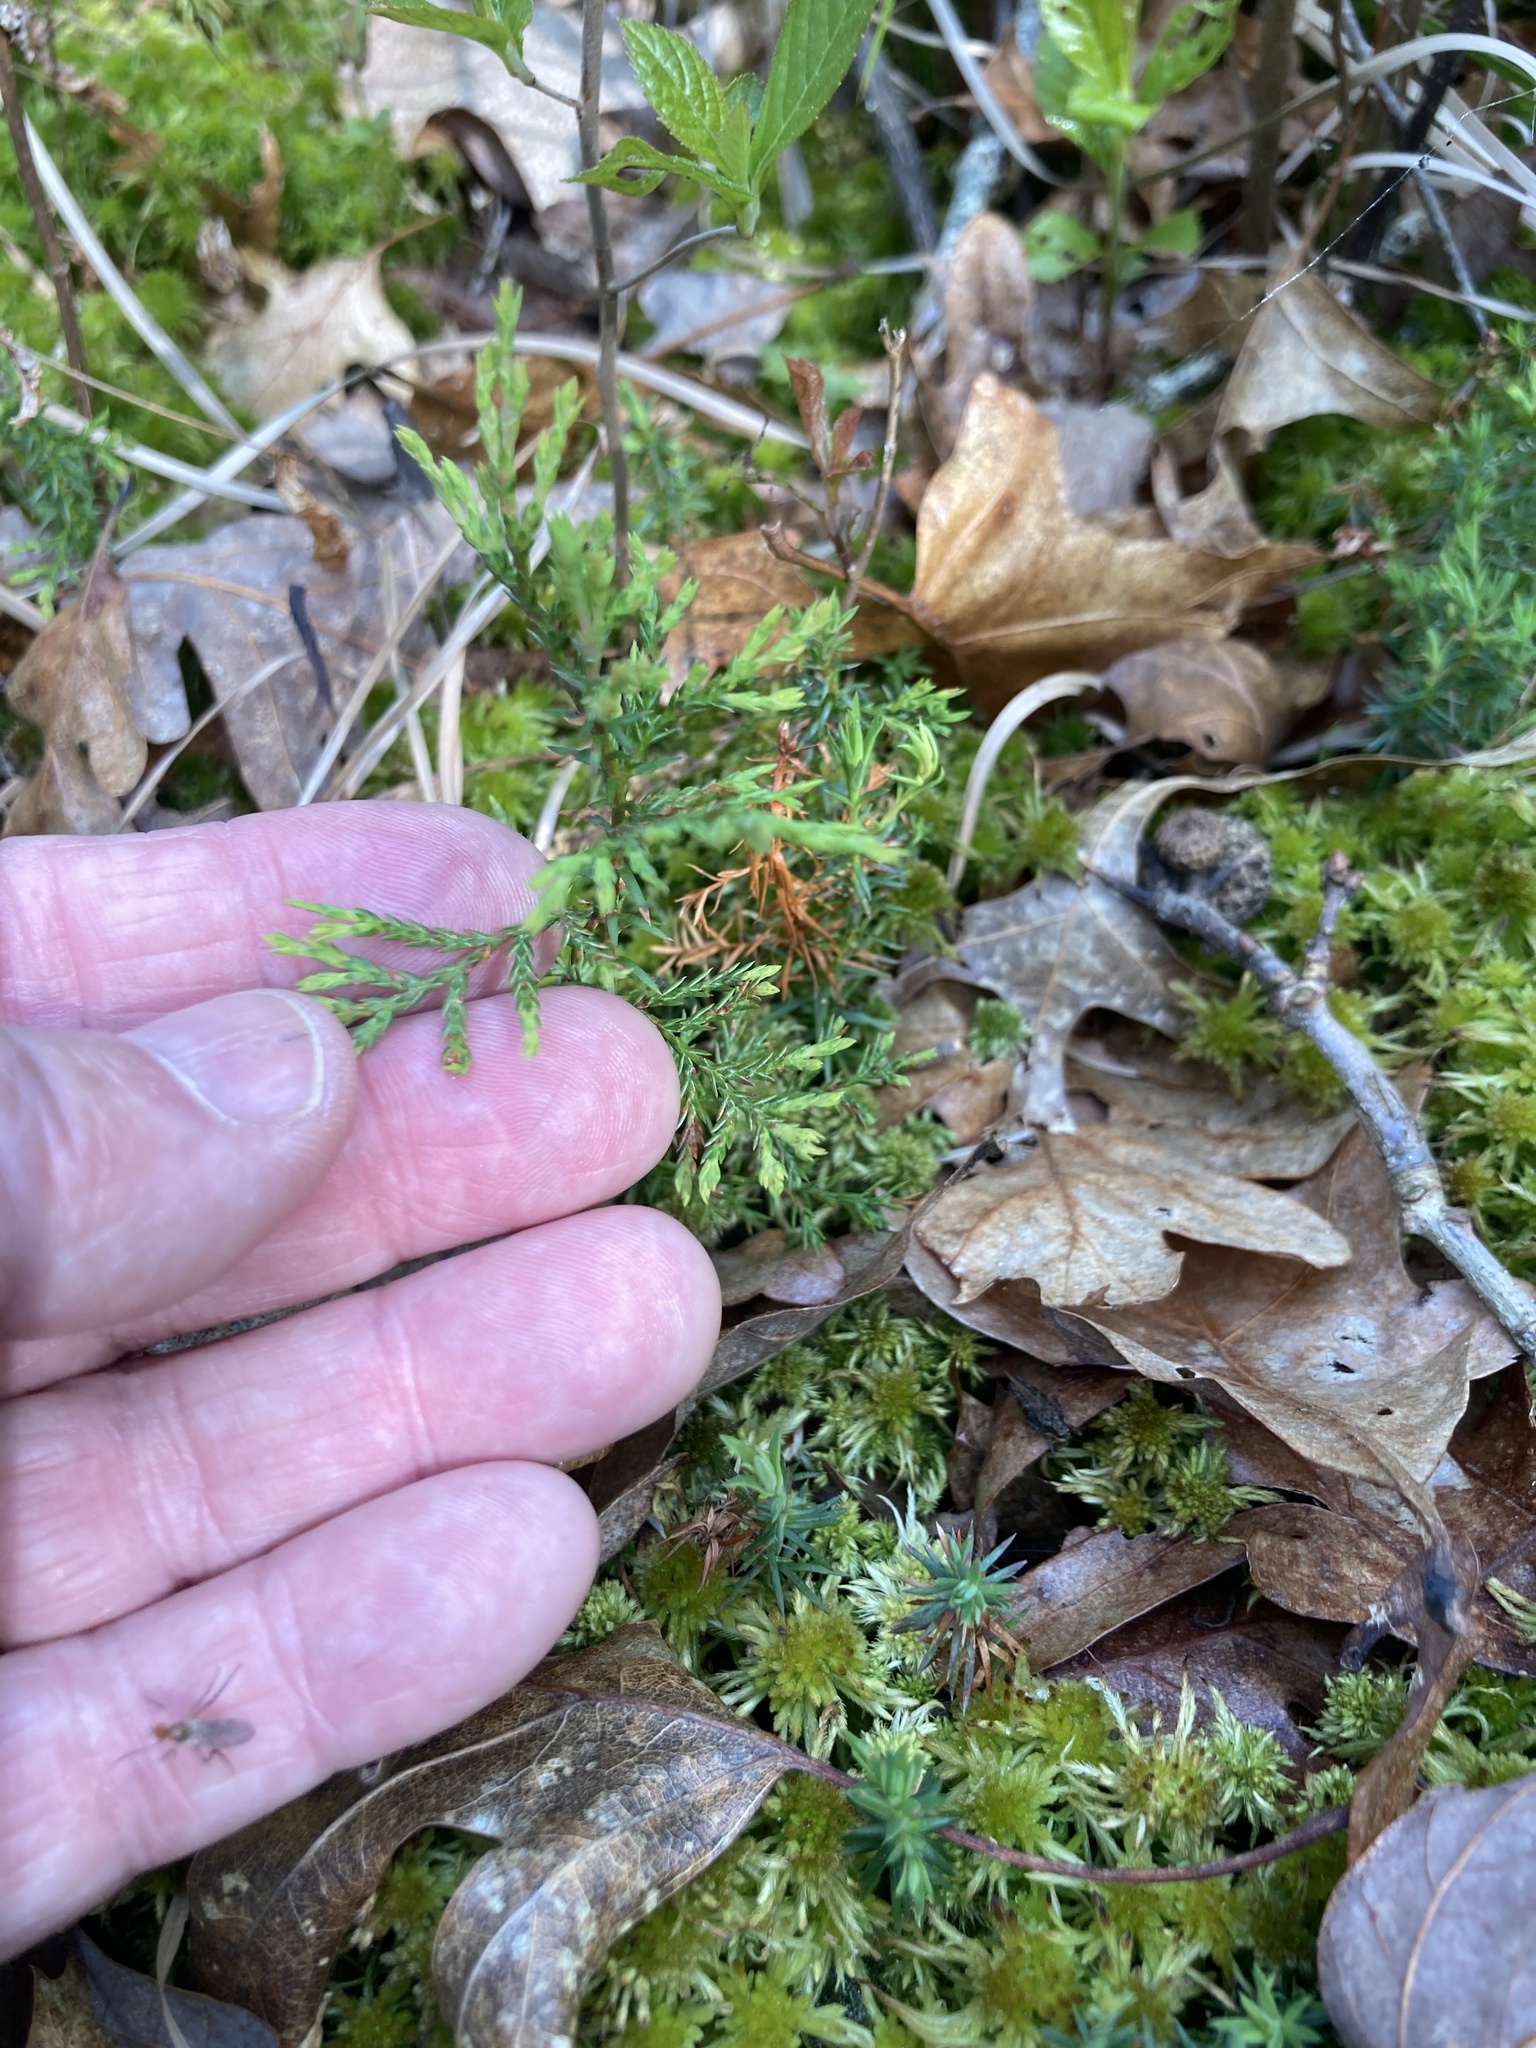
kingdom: Plantae
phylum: Tracheophyta
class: Pinopsida
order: Pinales
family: Cupressaceae
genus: Chamaecyparis
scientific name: Chamaecyparis thyoides
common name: Atlantic white cedar
